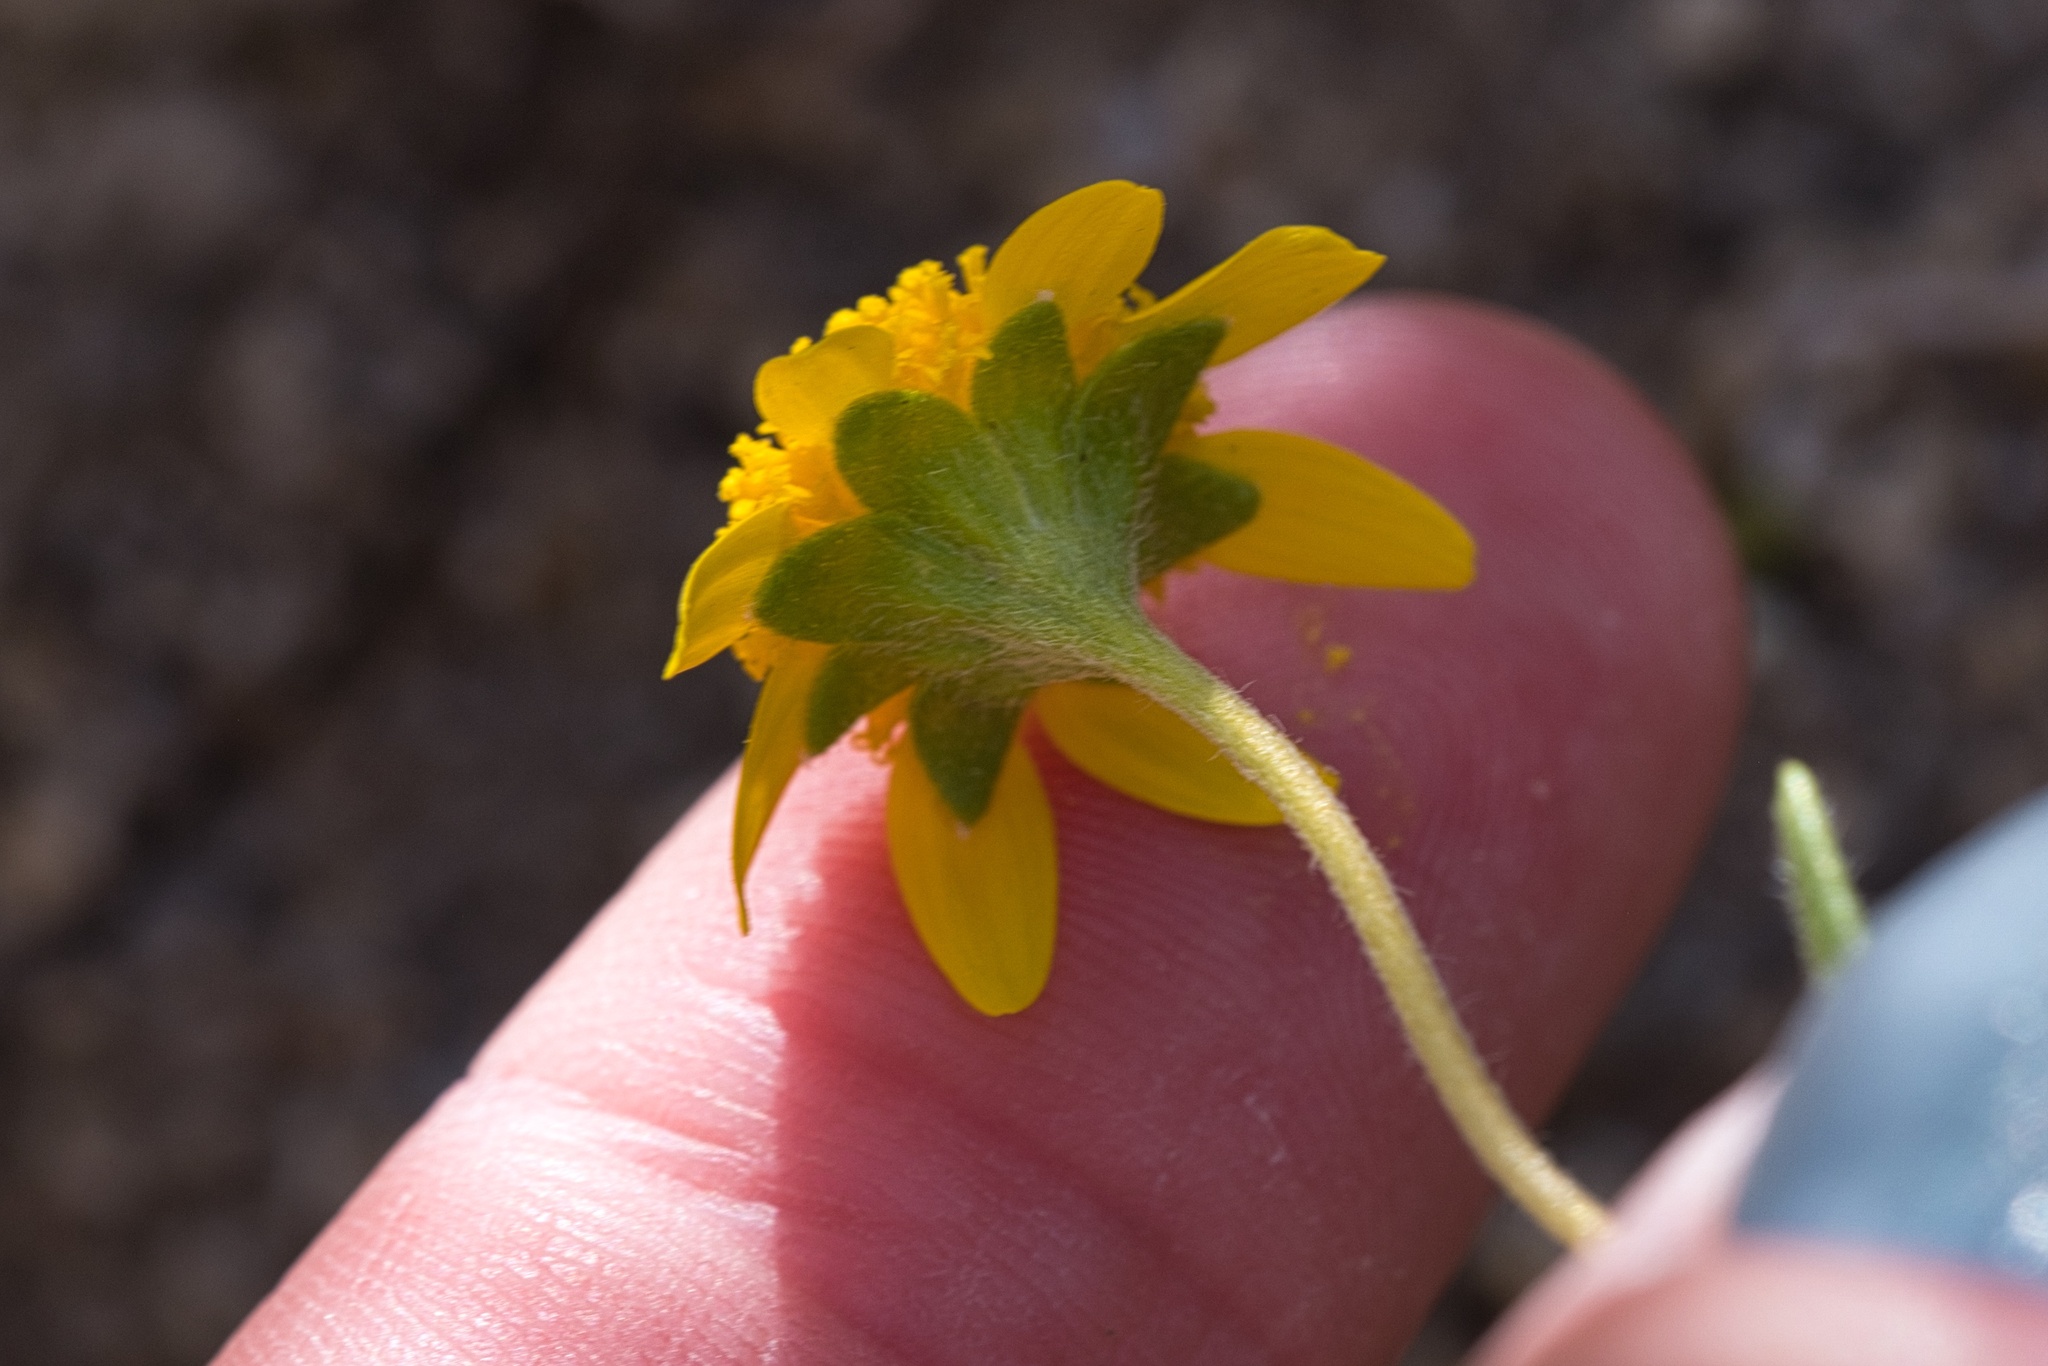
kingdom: Plantae
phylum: Tracheophyta
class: Magnoliopsida
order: Asterales
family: Asteraceae
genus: Lasthenia
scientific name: Lasthenia gracilis
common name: Common goldfields
